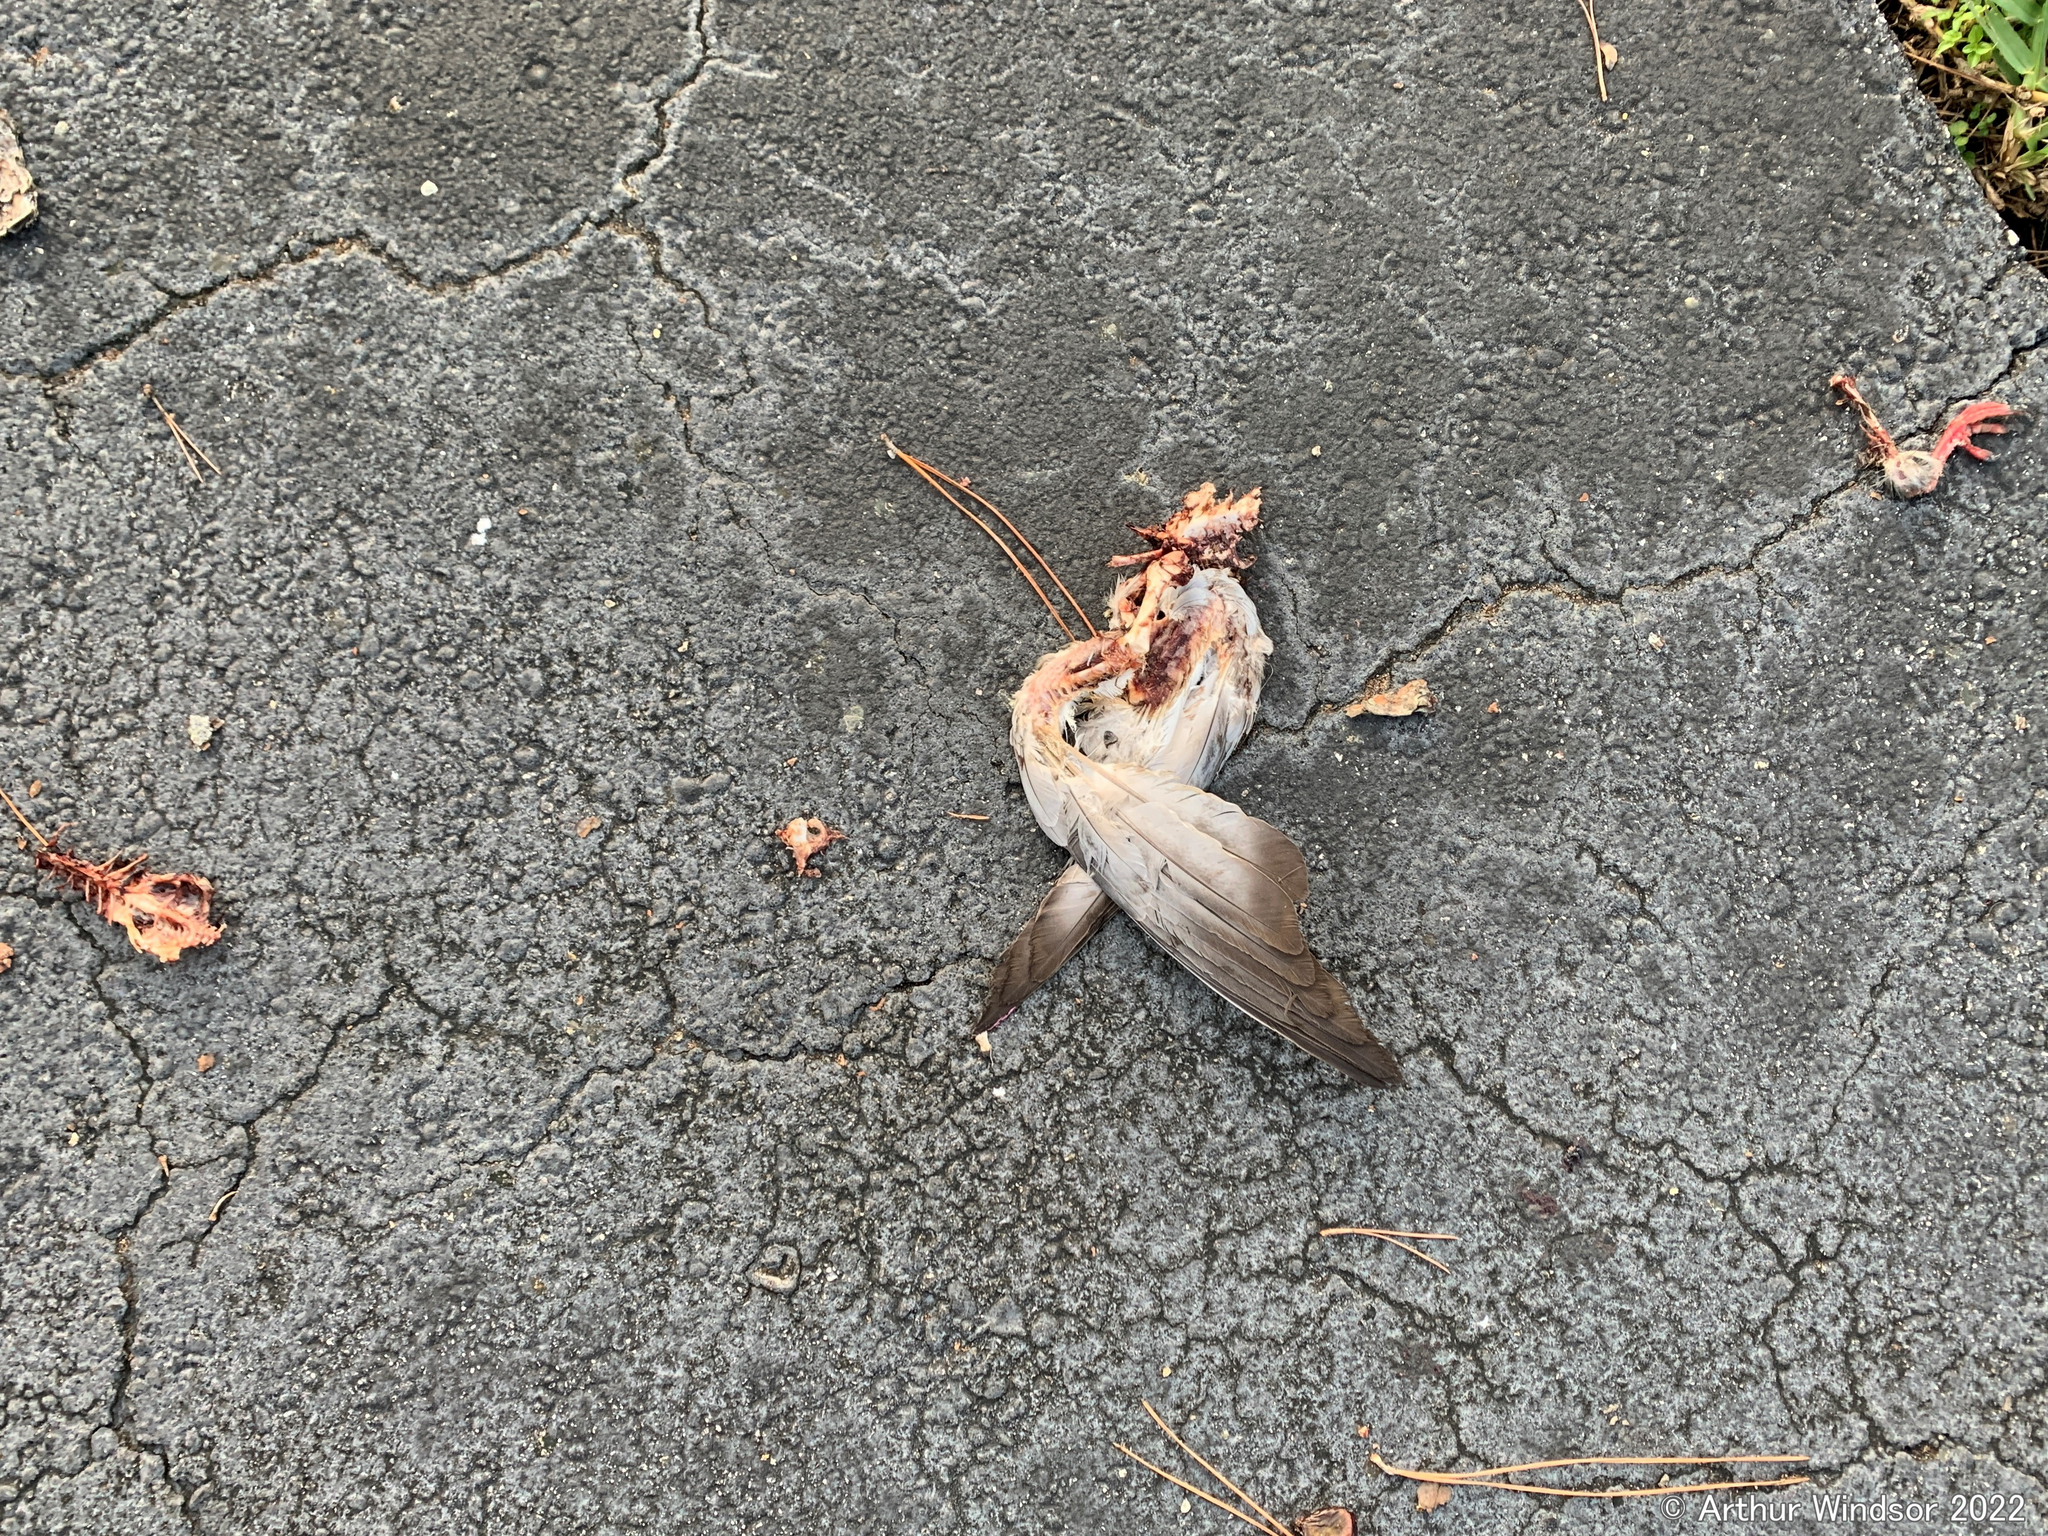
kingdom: Animalia
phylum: Chordata
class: Aves
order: Accipitriformes
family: Accipitridae
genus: Accipiter
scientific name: Accipiter cooperii
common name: Cooper's hawk
